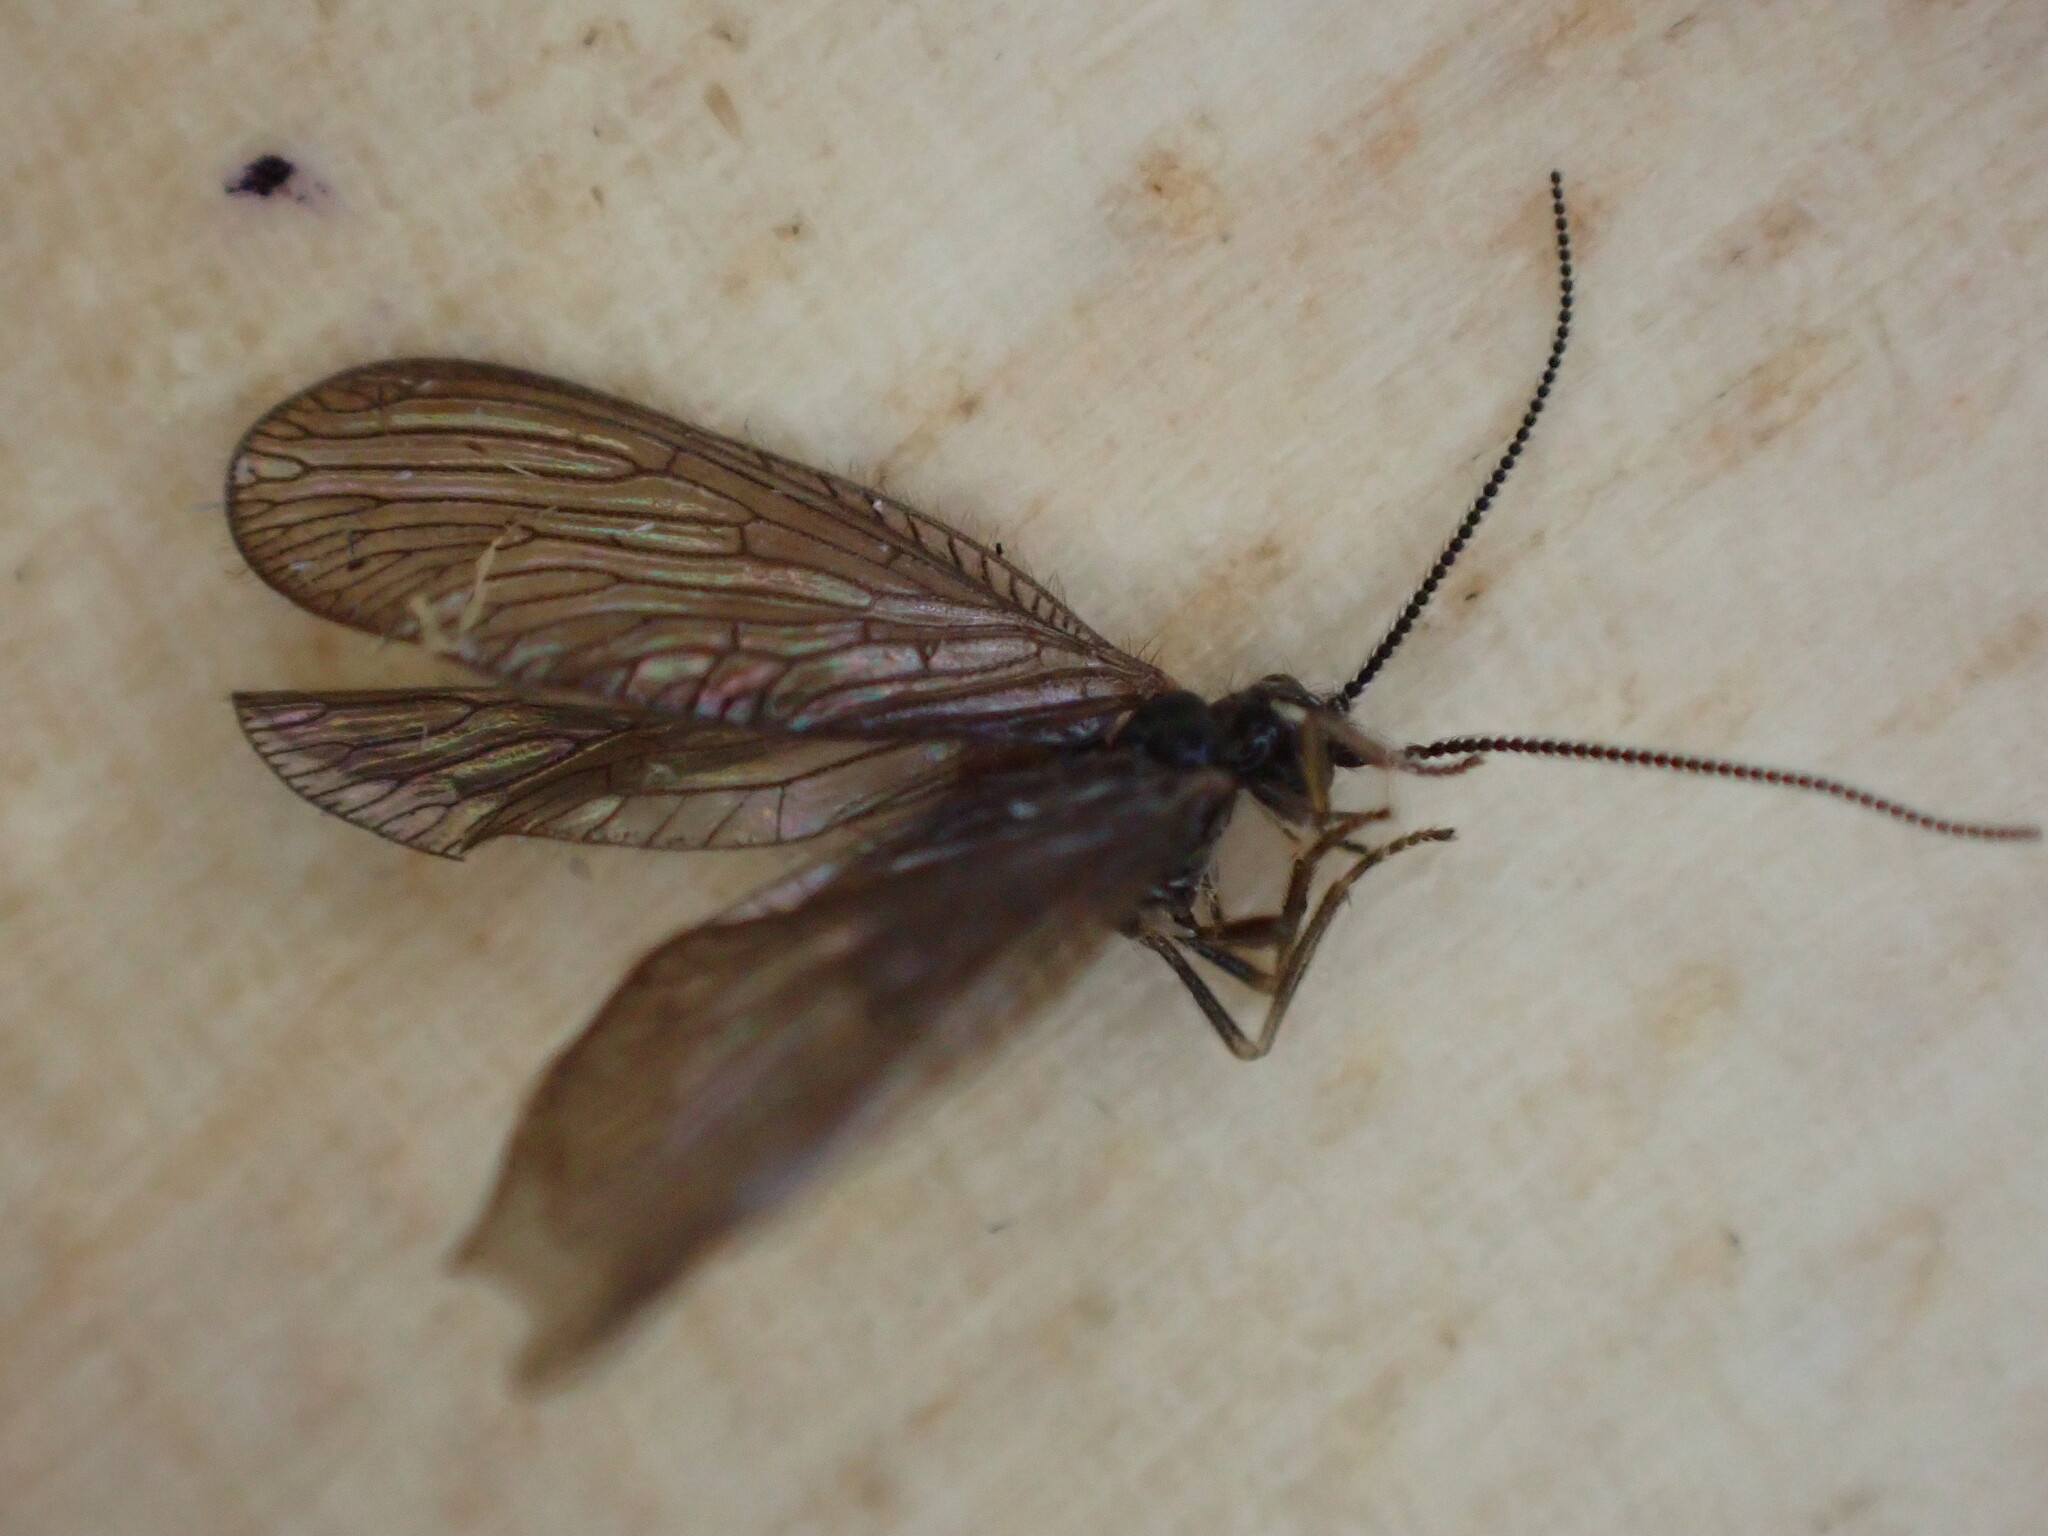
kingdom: Animalia
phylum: Arthropoda
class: Insecta
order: Neuroptera
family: Sisyridae
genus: Sisyra
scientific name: Sisyra nigra
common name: Black spongillafly
